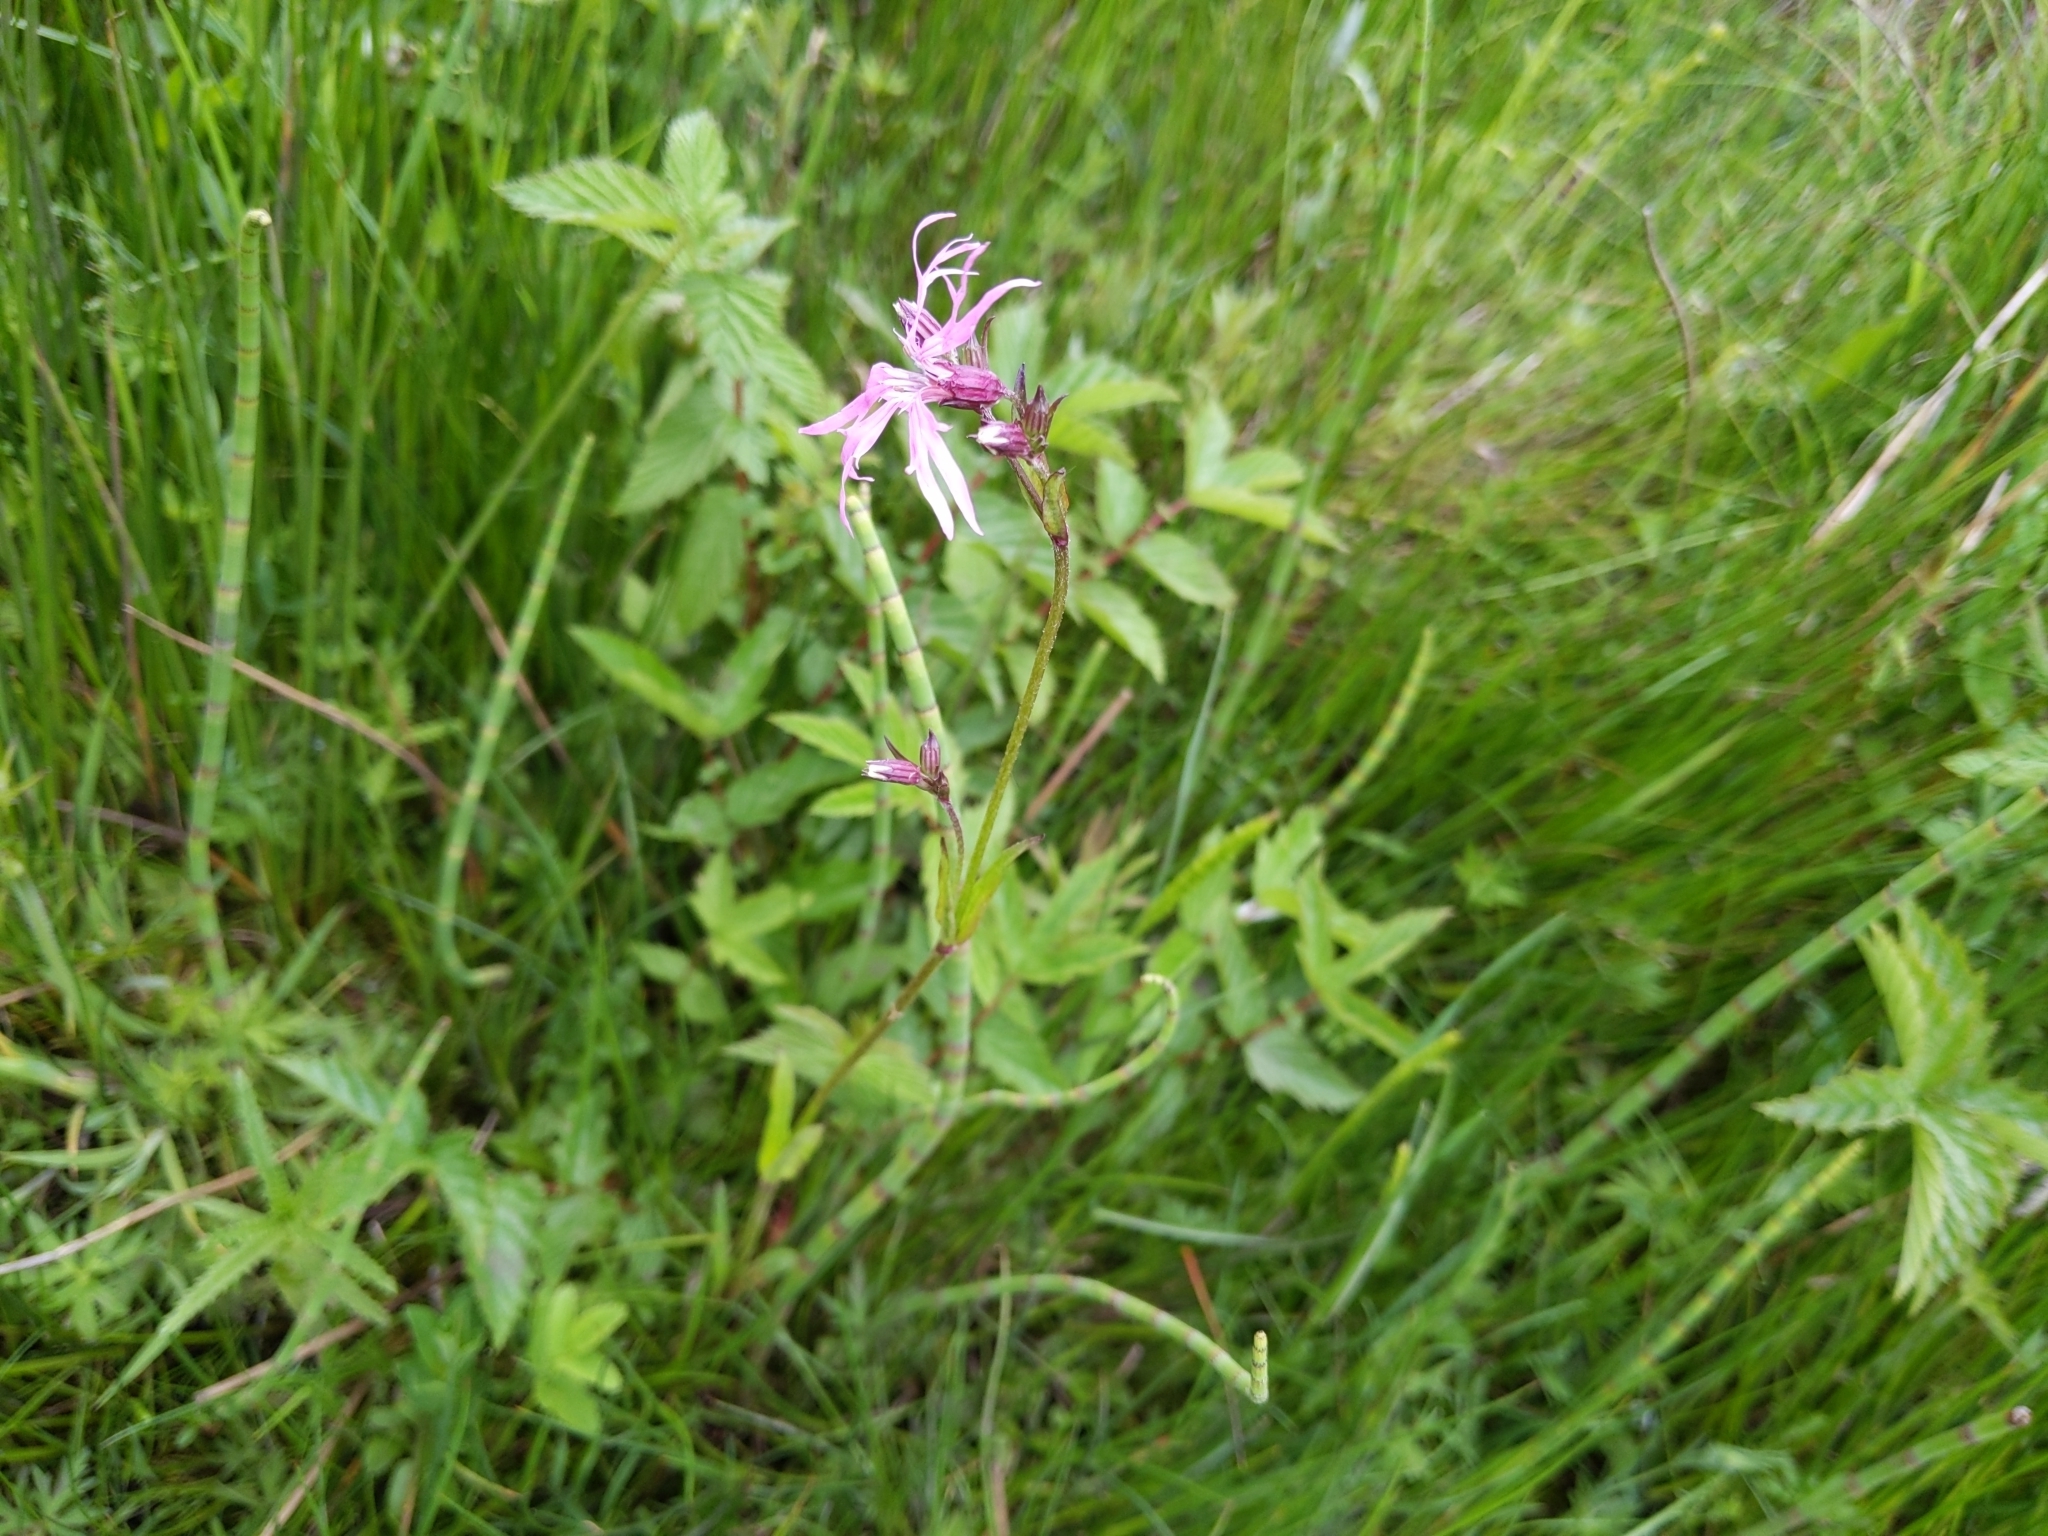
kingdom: Plantae
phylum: Tracheophyta
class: Magnoliopsida
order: Caryophyllales
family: Caryophyllaceae
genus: Silene
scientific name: Silene flos-cuculi
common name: Ragged-robin
